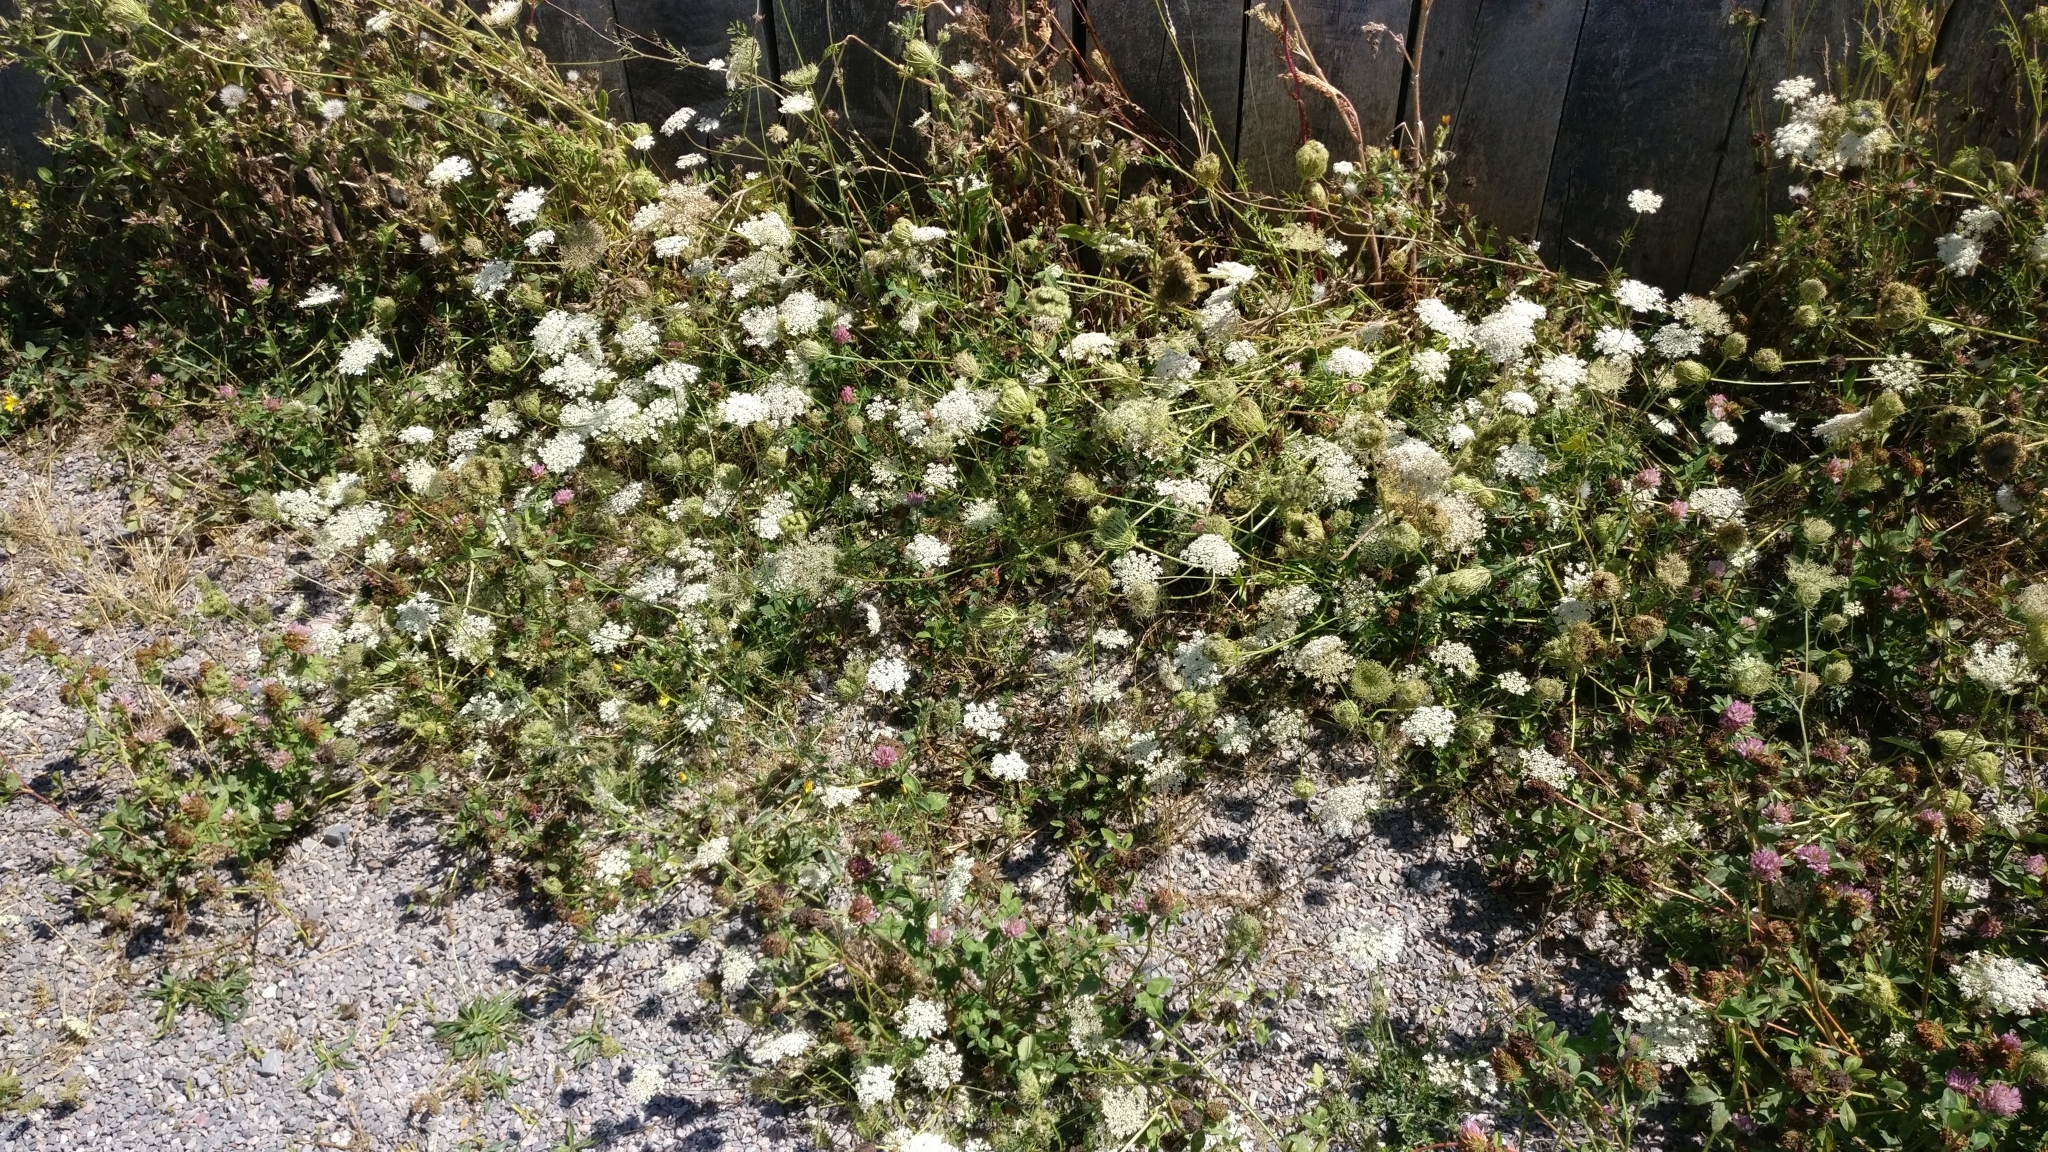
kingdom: Plantae
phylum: Tracheophyta
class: Magnoliopsida
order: Apiales
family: Apiaceae
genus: Daucus
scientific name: Daucus carota
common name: Wild carrot
